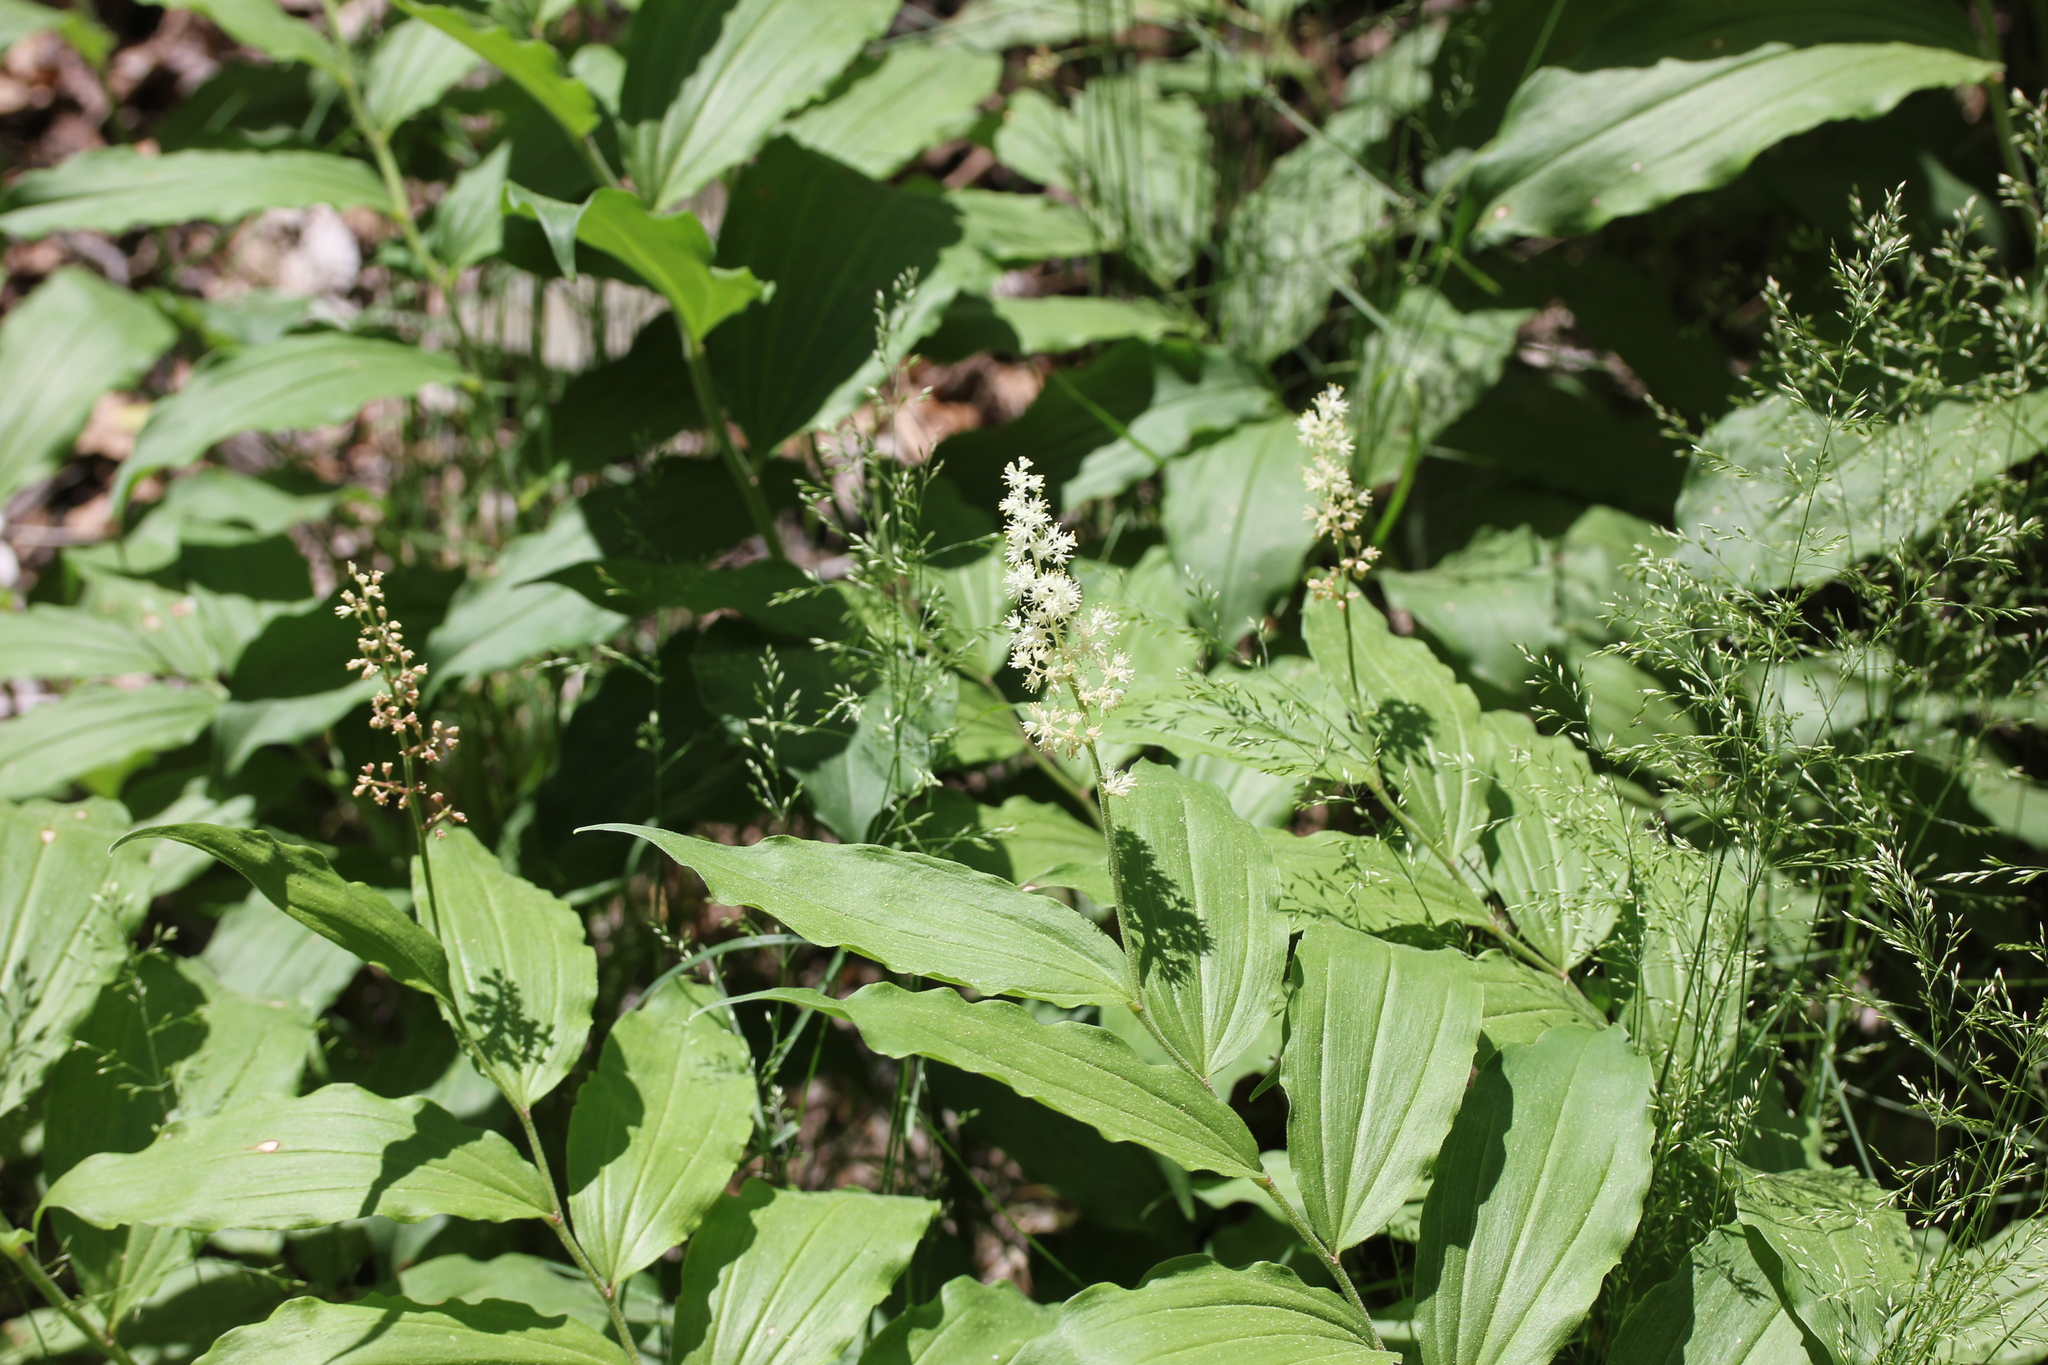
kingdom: Plantae
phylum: Tracheophyta
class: Liliopsida
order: Asparagales
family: Asparagaceae
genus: Maianthemum
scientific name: Maianthemum racemosum
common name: False spikenard
